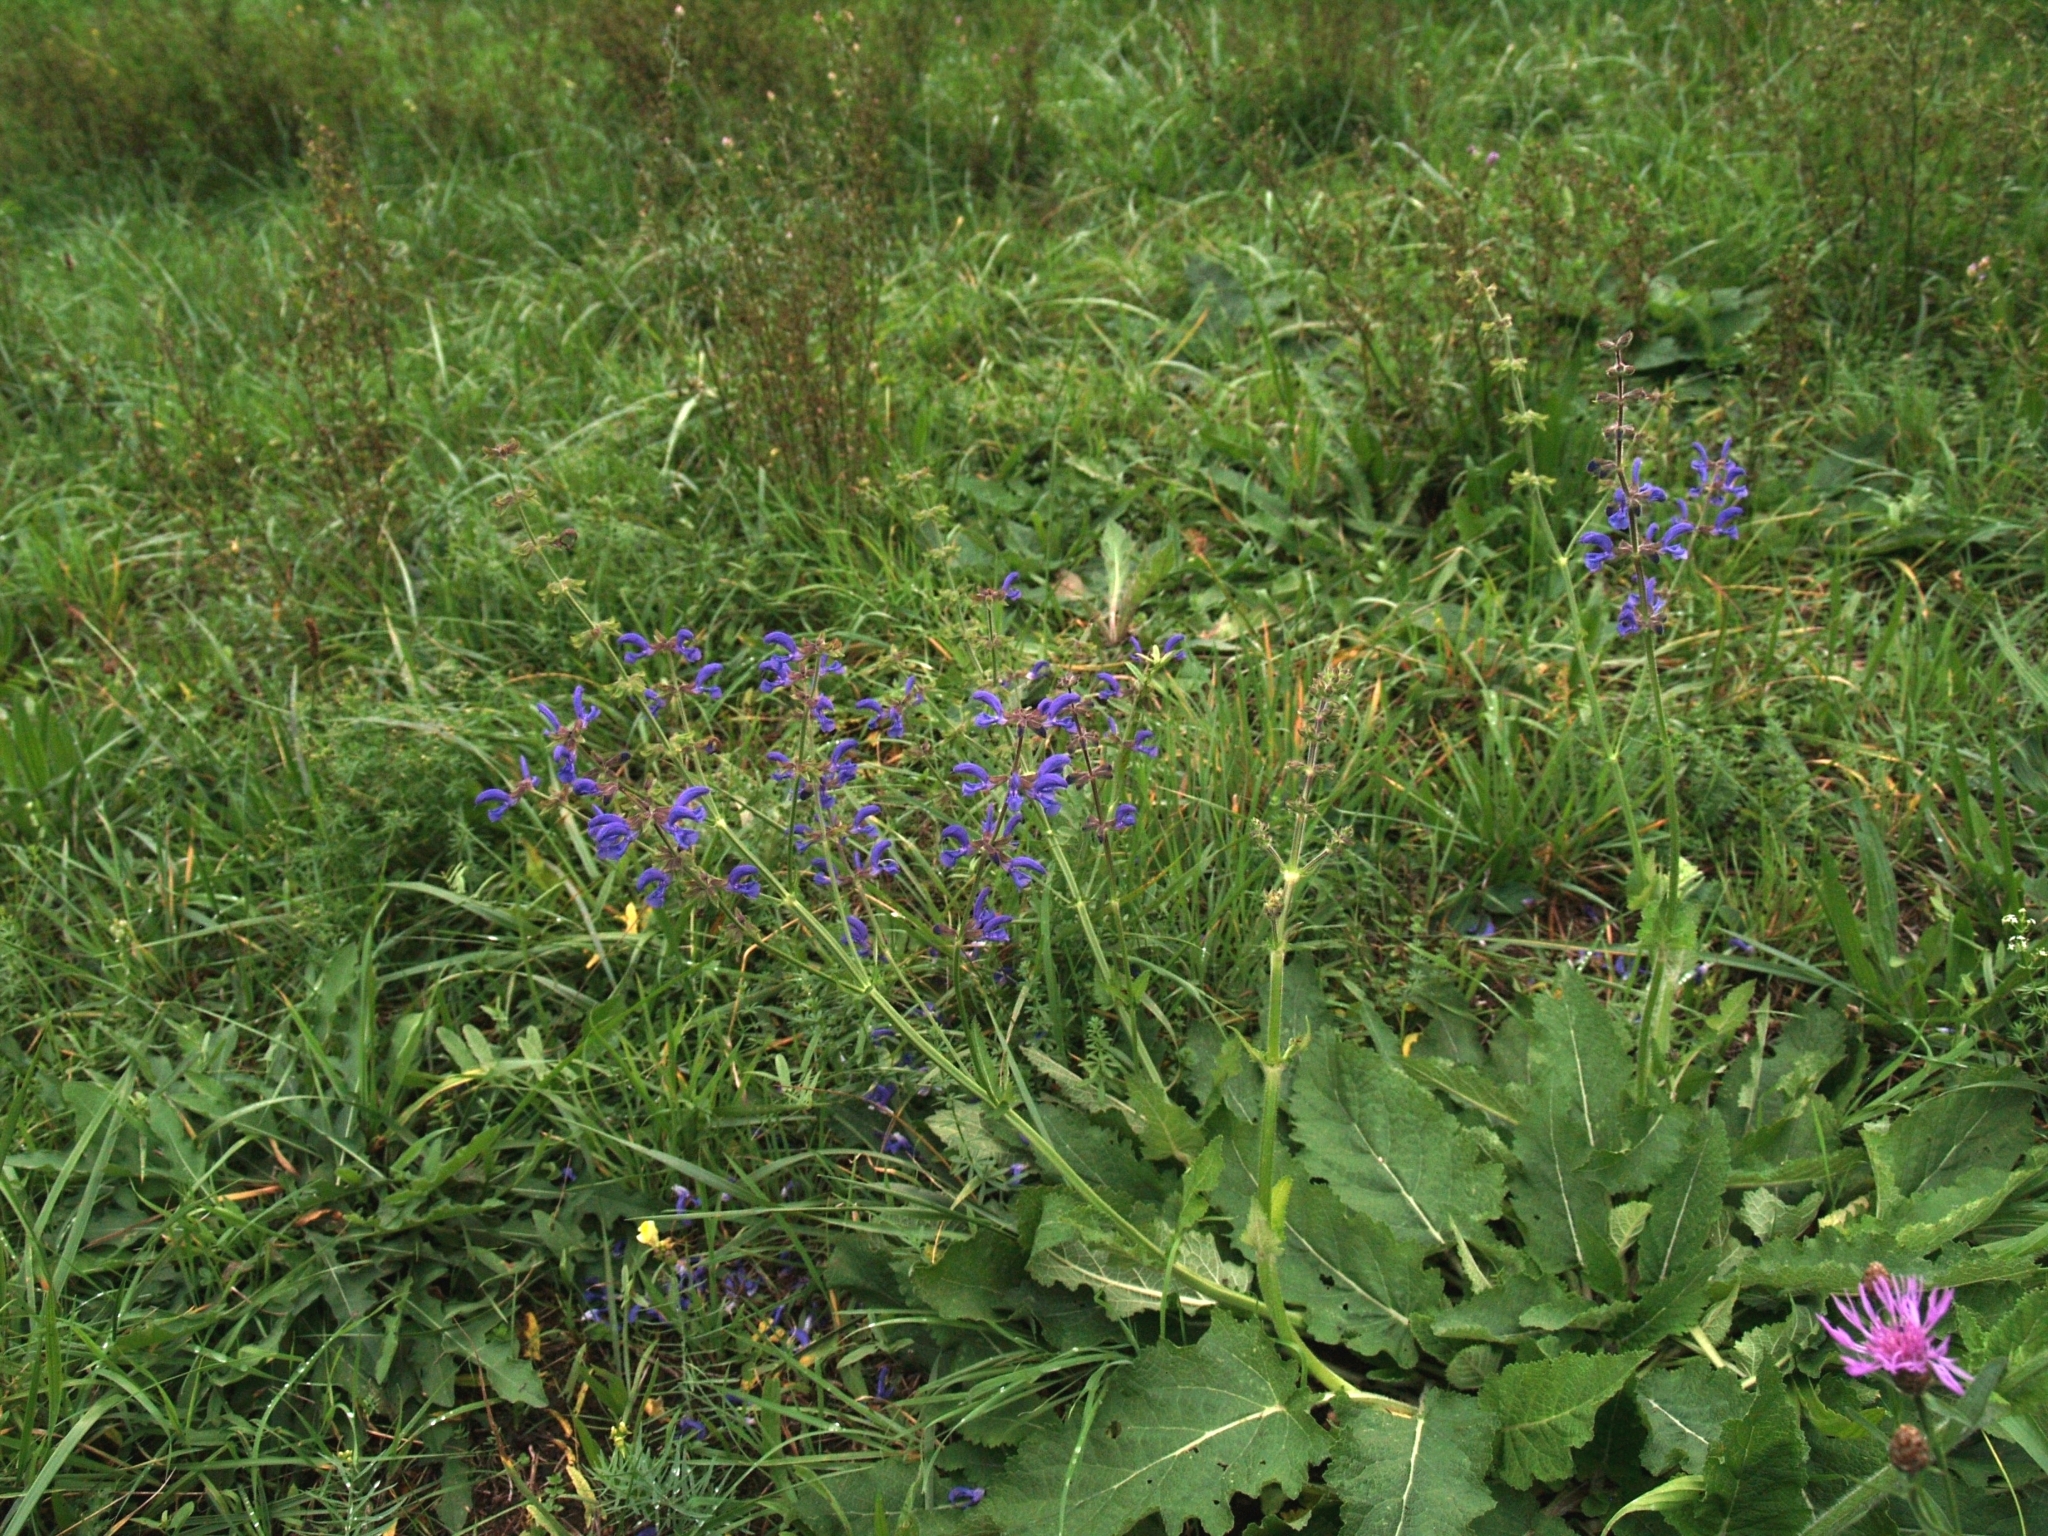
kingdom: Plantae
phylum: Tracheophyta
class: Magnoliopsida
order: Lamiales
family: Lamiaceae
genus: Salvia
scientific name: Salvia pratensis
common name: Meadow sage
